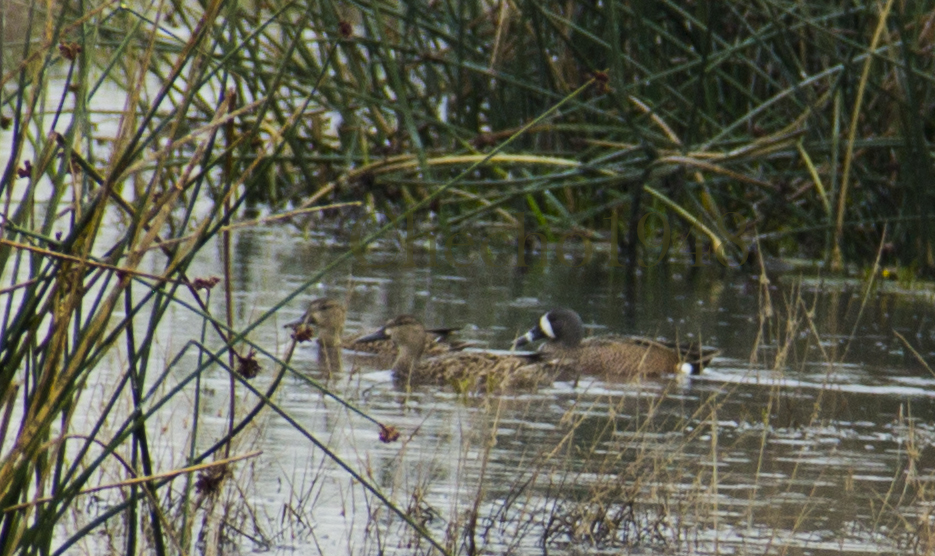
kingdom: Animalia
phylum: Chordata
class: Aves
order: Anseriformes
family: Anatidae
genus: Spatula
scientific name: Spatula discors
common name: Blue-winged teal
